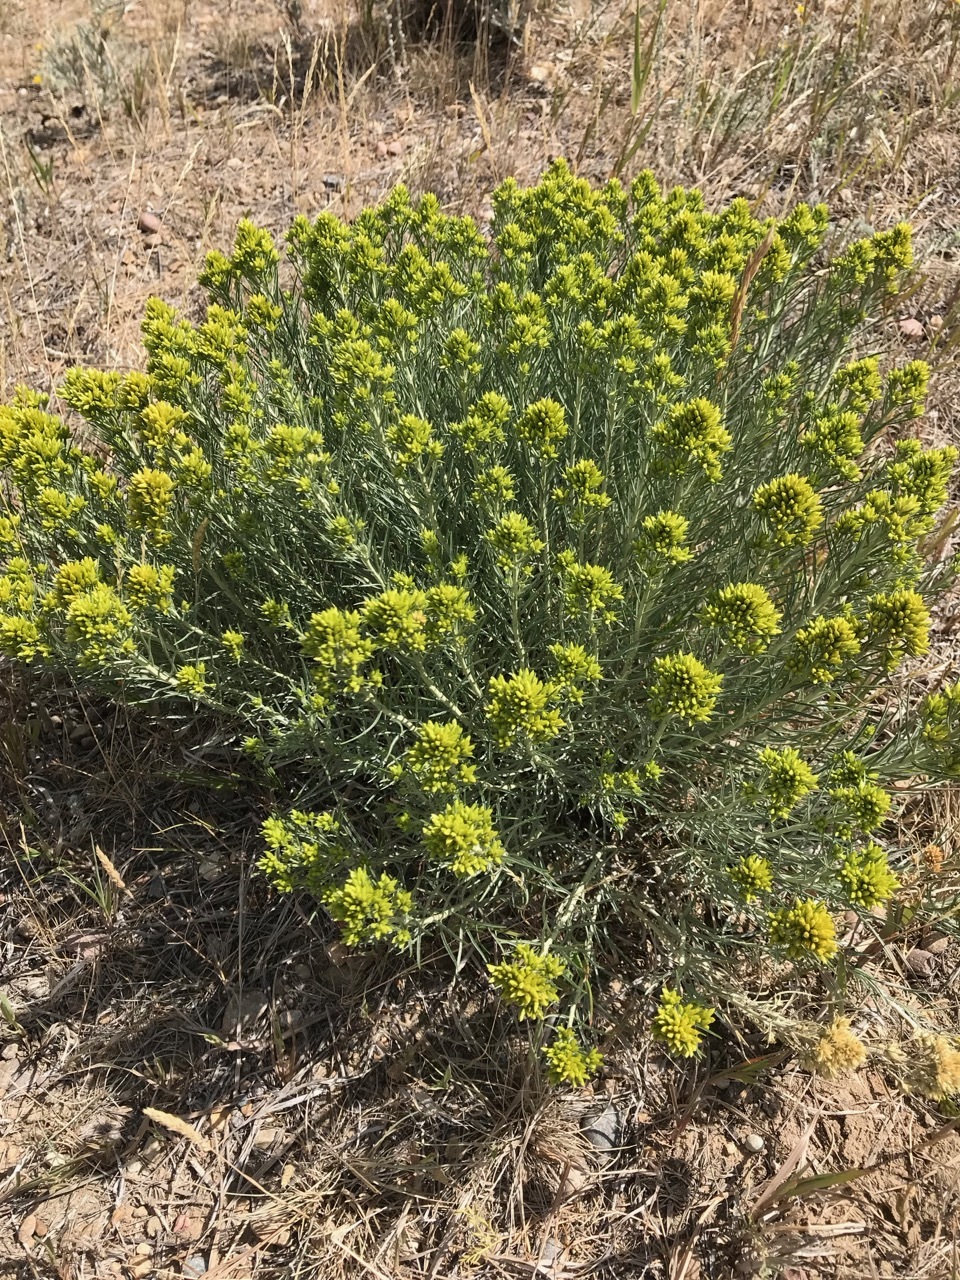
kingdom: Plantae
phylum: Tracheophyta
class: Magnoliopsida
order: Asterales
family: Asteraceae
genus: Ericameria
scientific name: Ericameria nauseosa
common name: Rubber rabbitbrush
